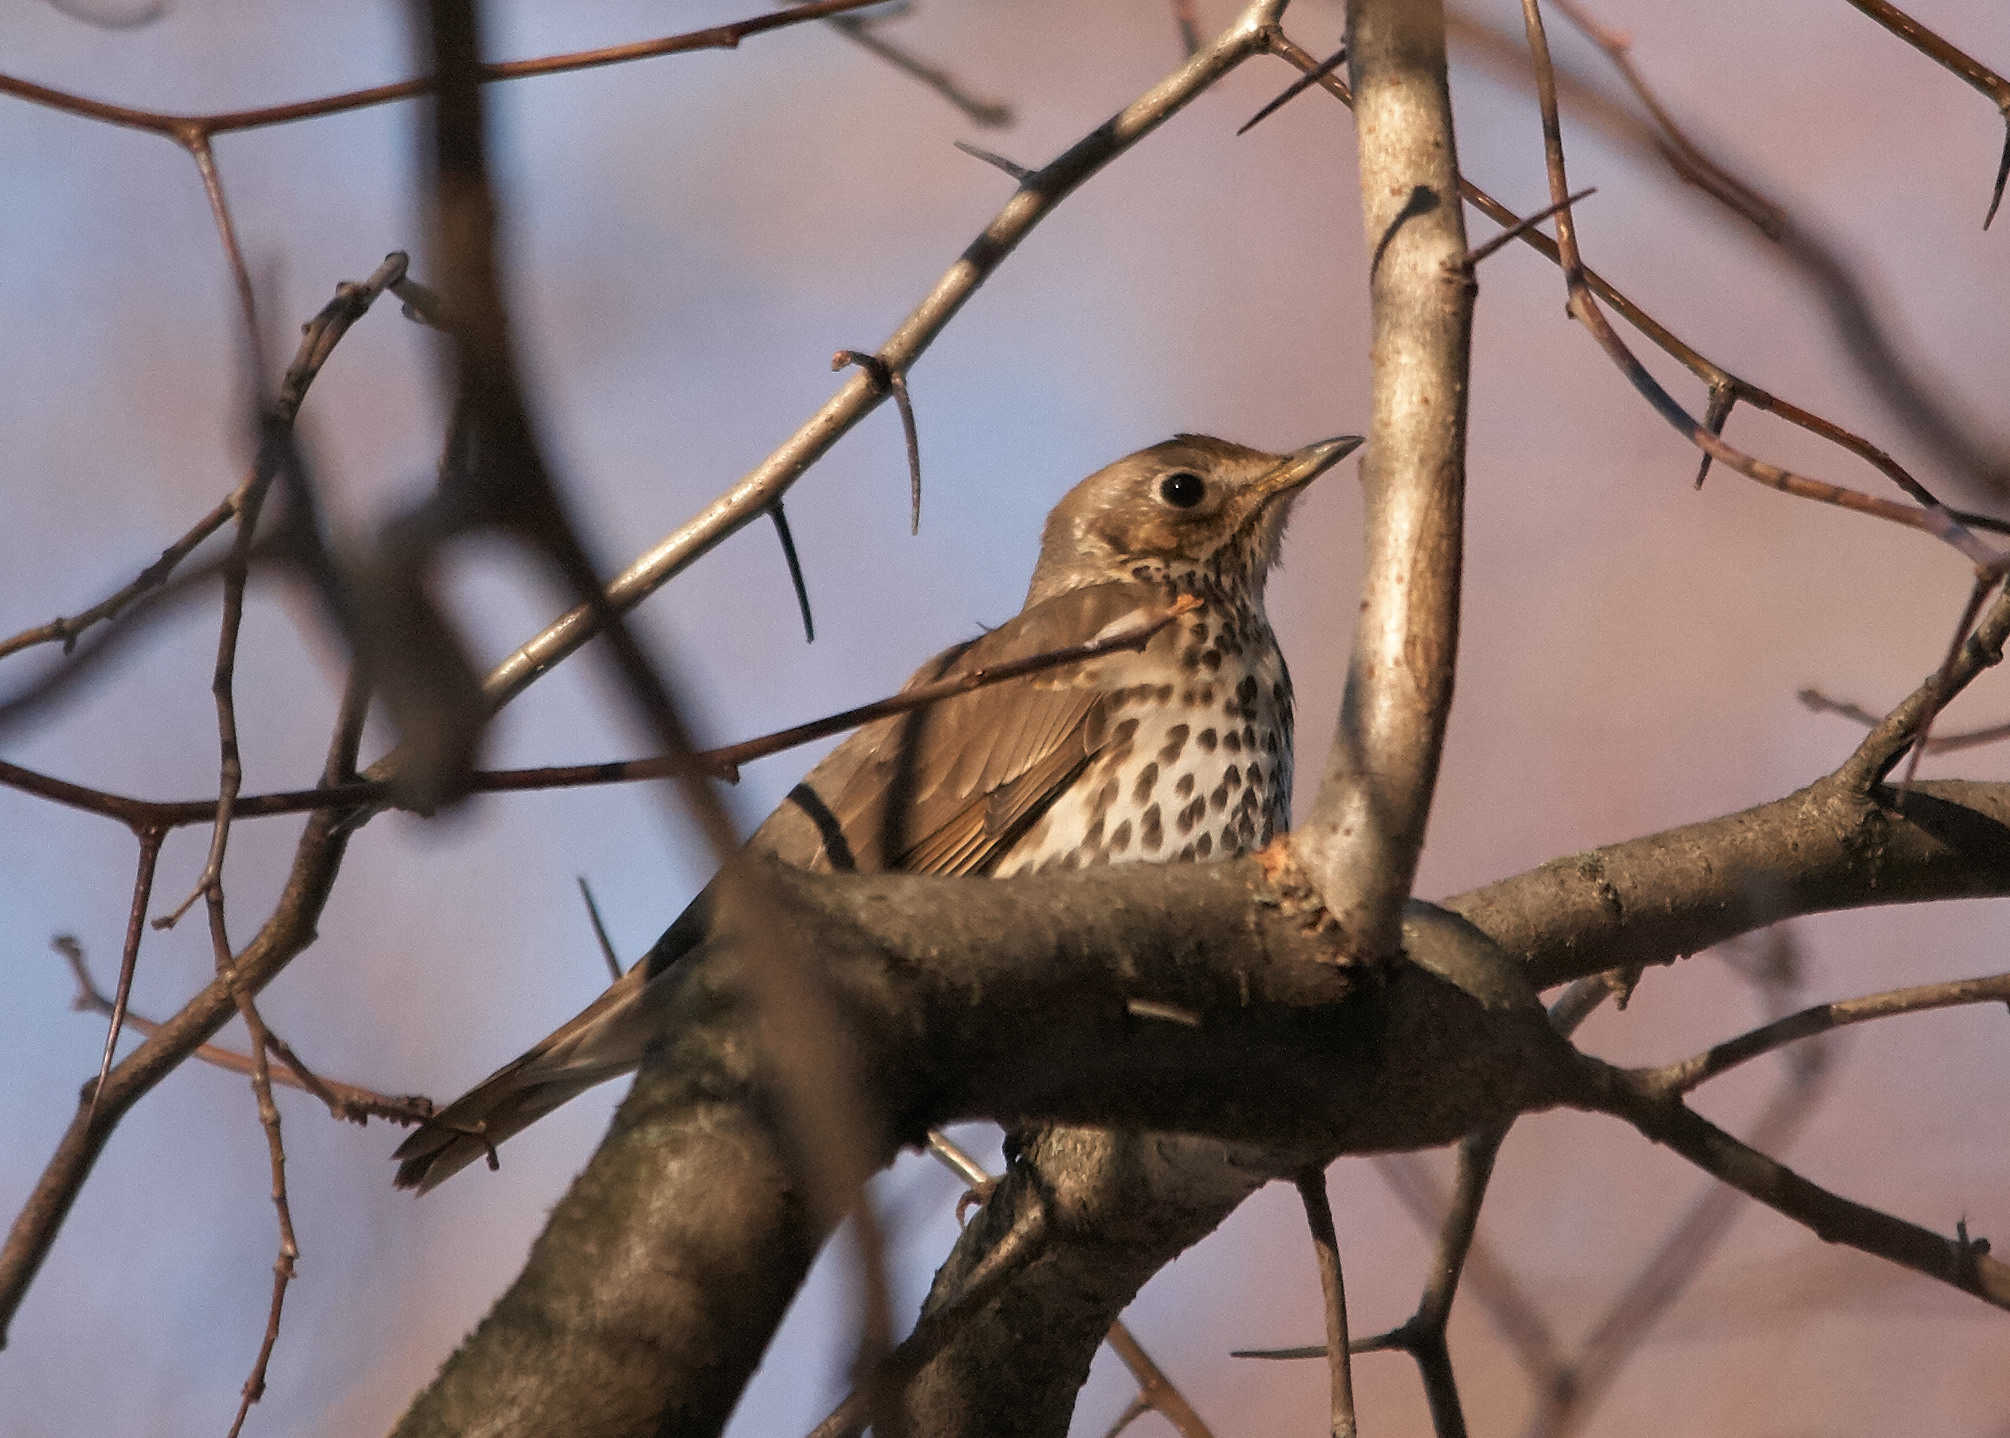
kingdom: Animalia
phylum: Chordata
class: Aves
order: Passeriformes
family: Turdidae
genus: Turdus
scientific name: Turdus philomelos
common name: Song thrush
